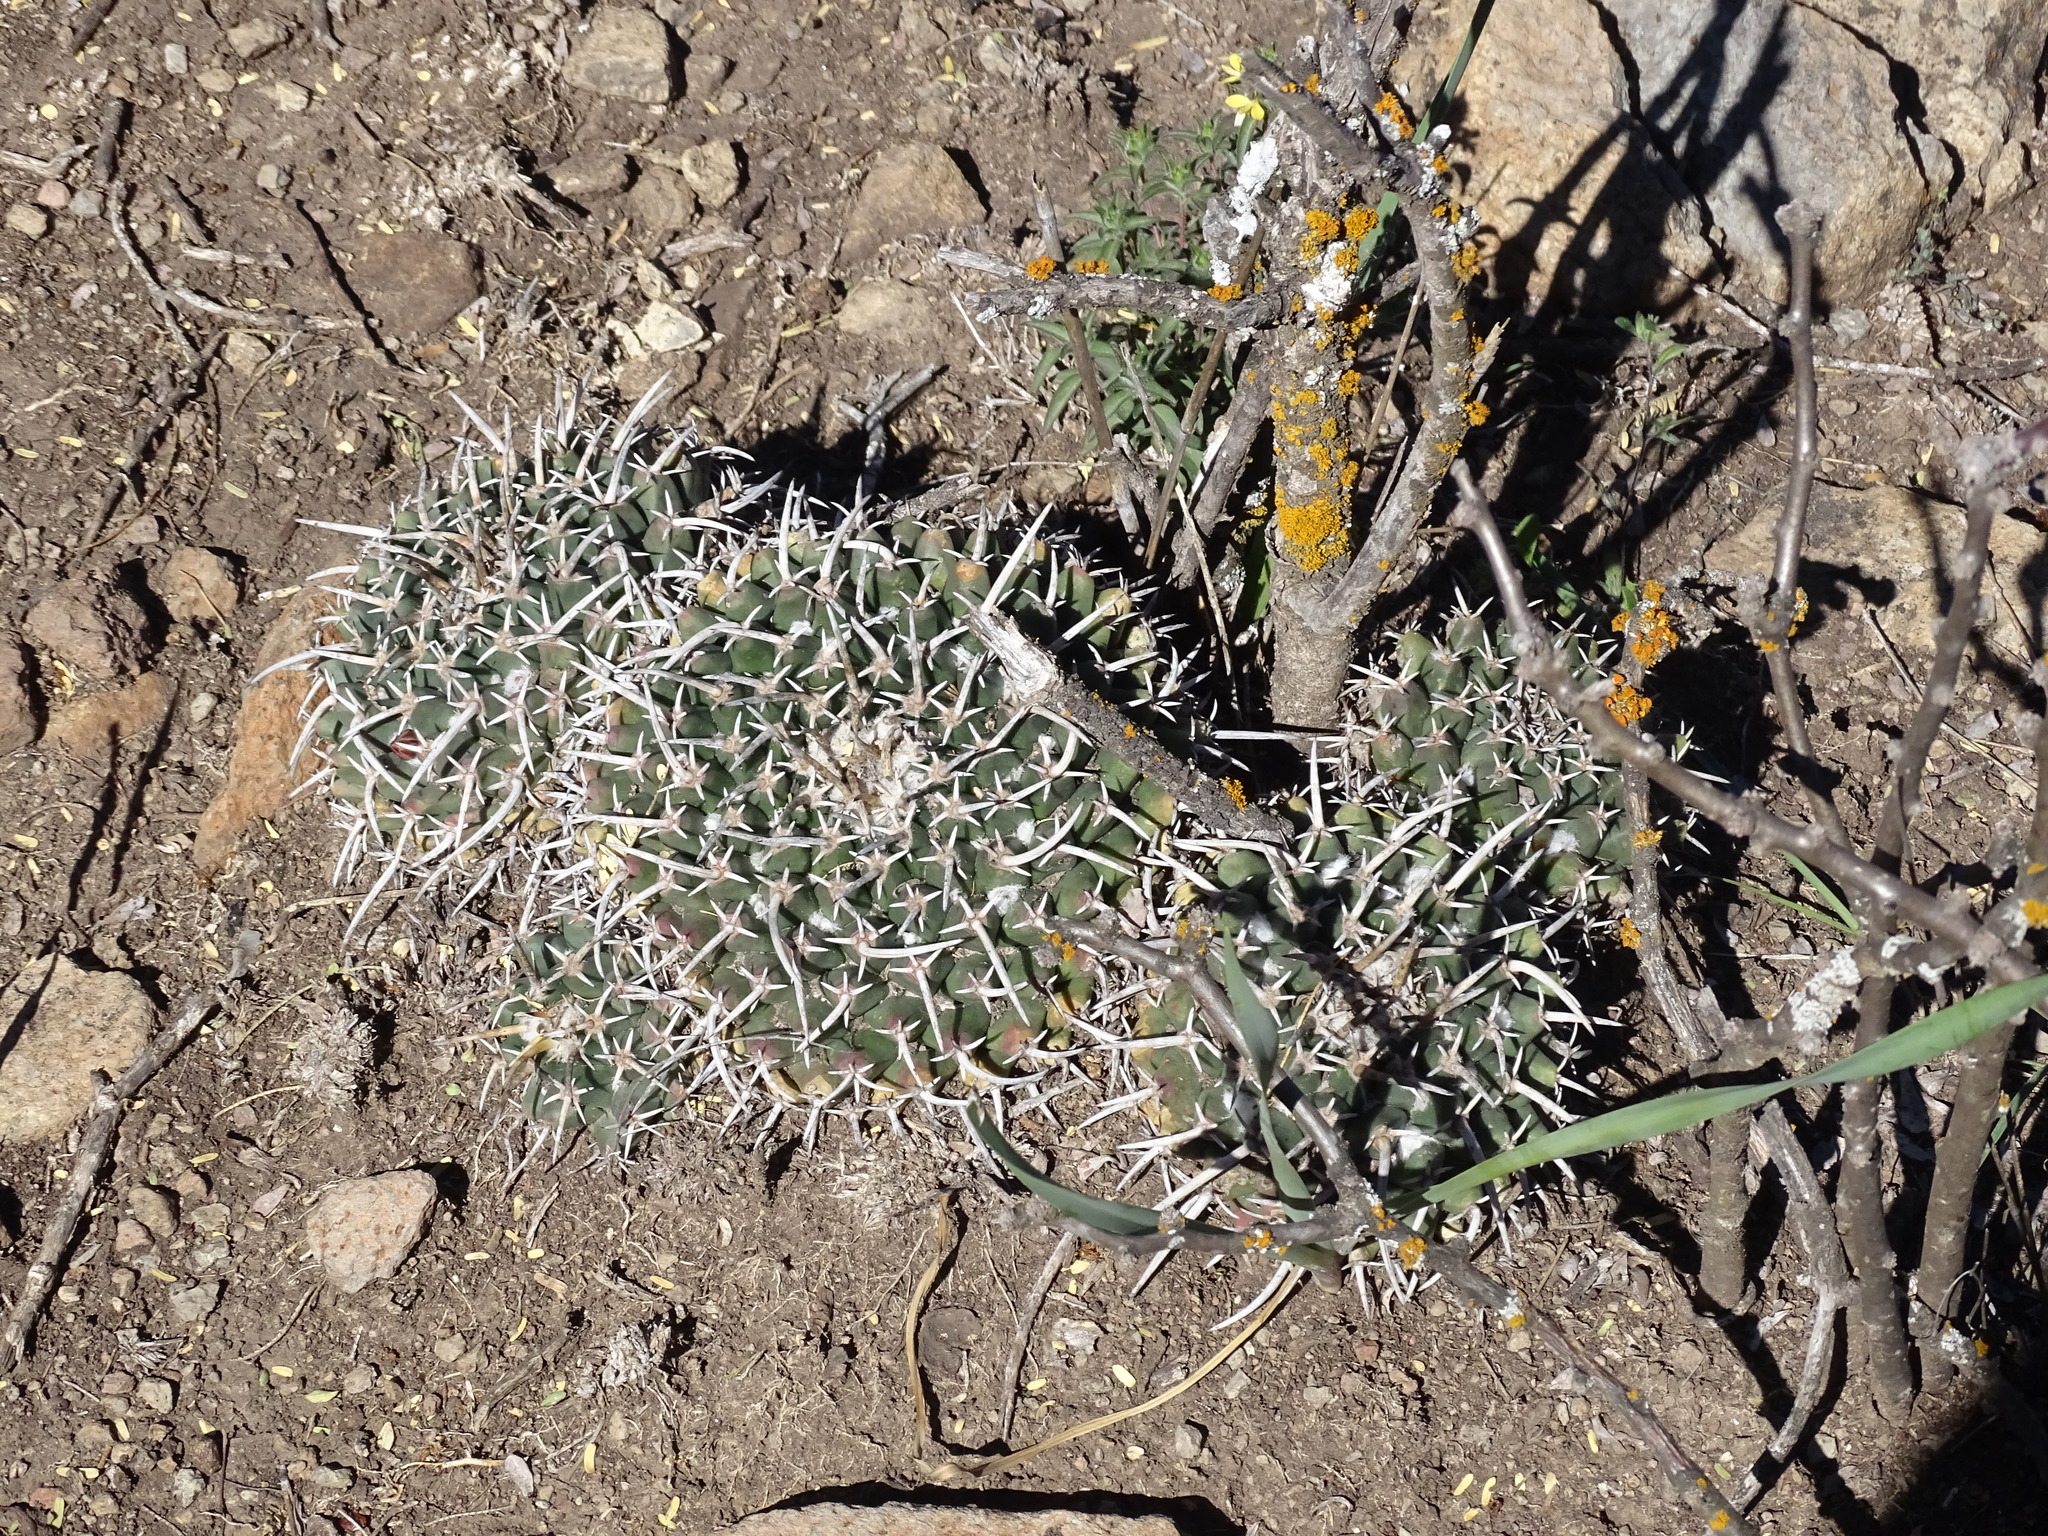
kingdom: Plantae
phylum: Tracheophyta
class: Magnoliopsida
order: Caryophyllales
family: Cactaceae
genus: Mammillaria
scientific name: Mammillaria magnimamma
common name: Mexican pincushion
